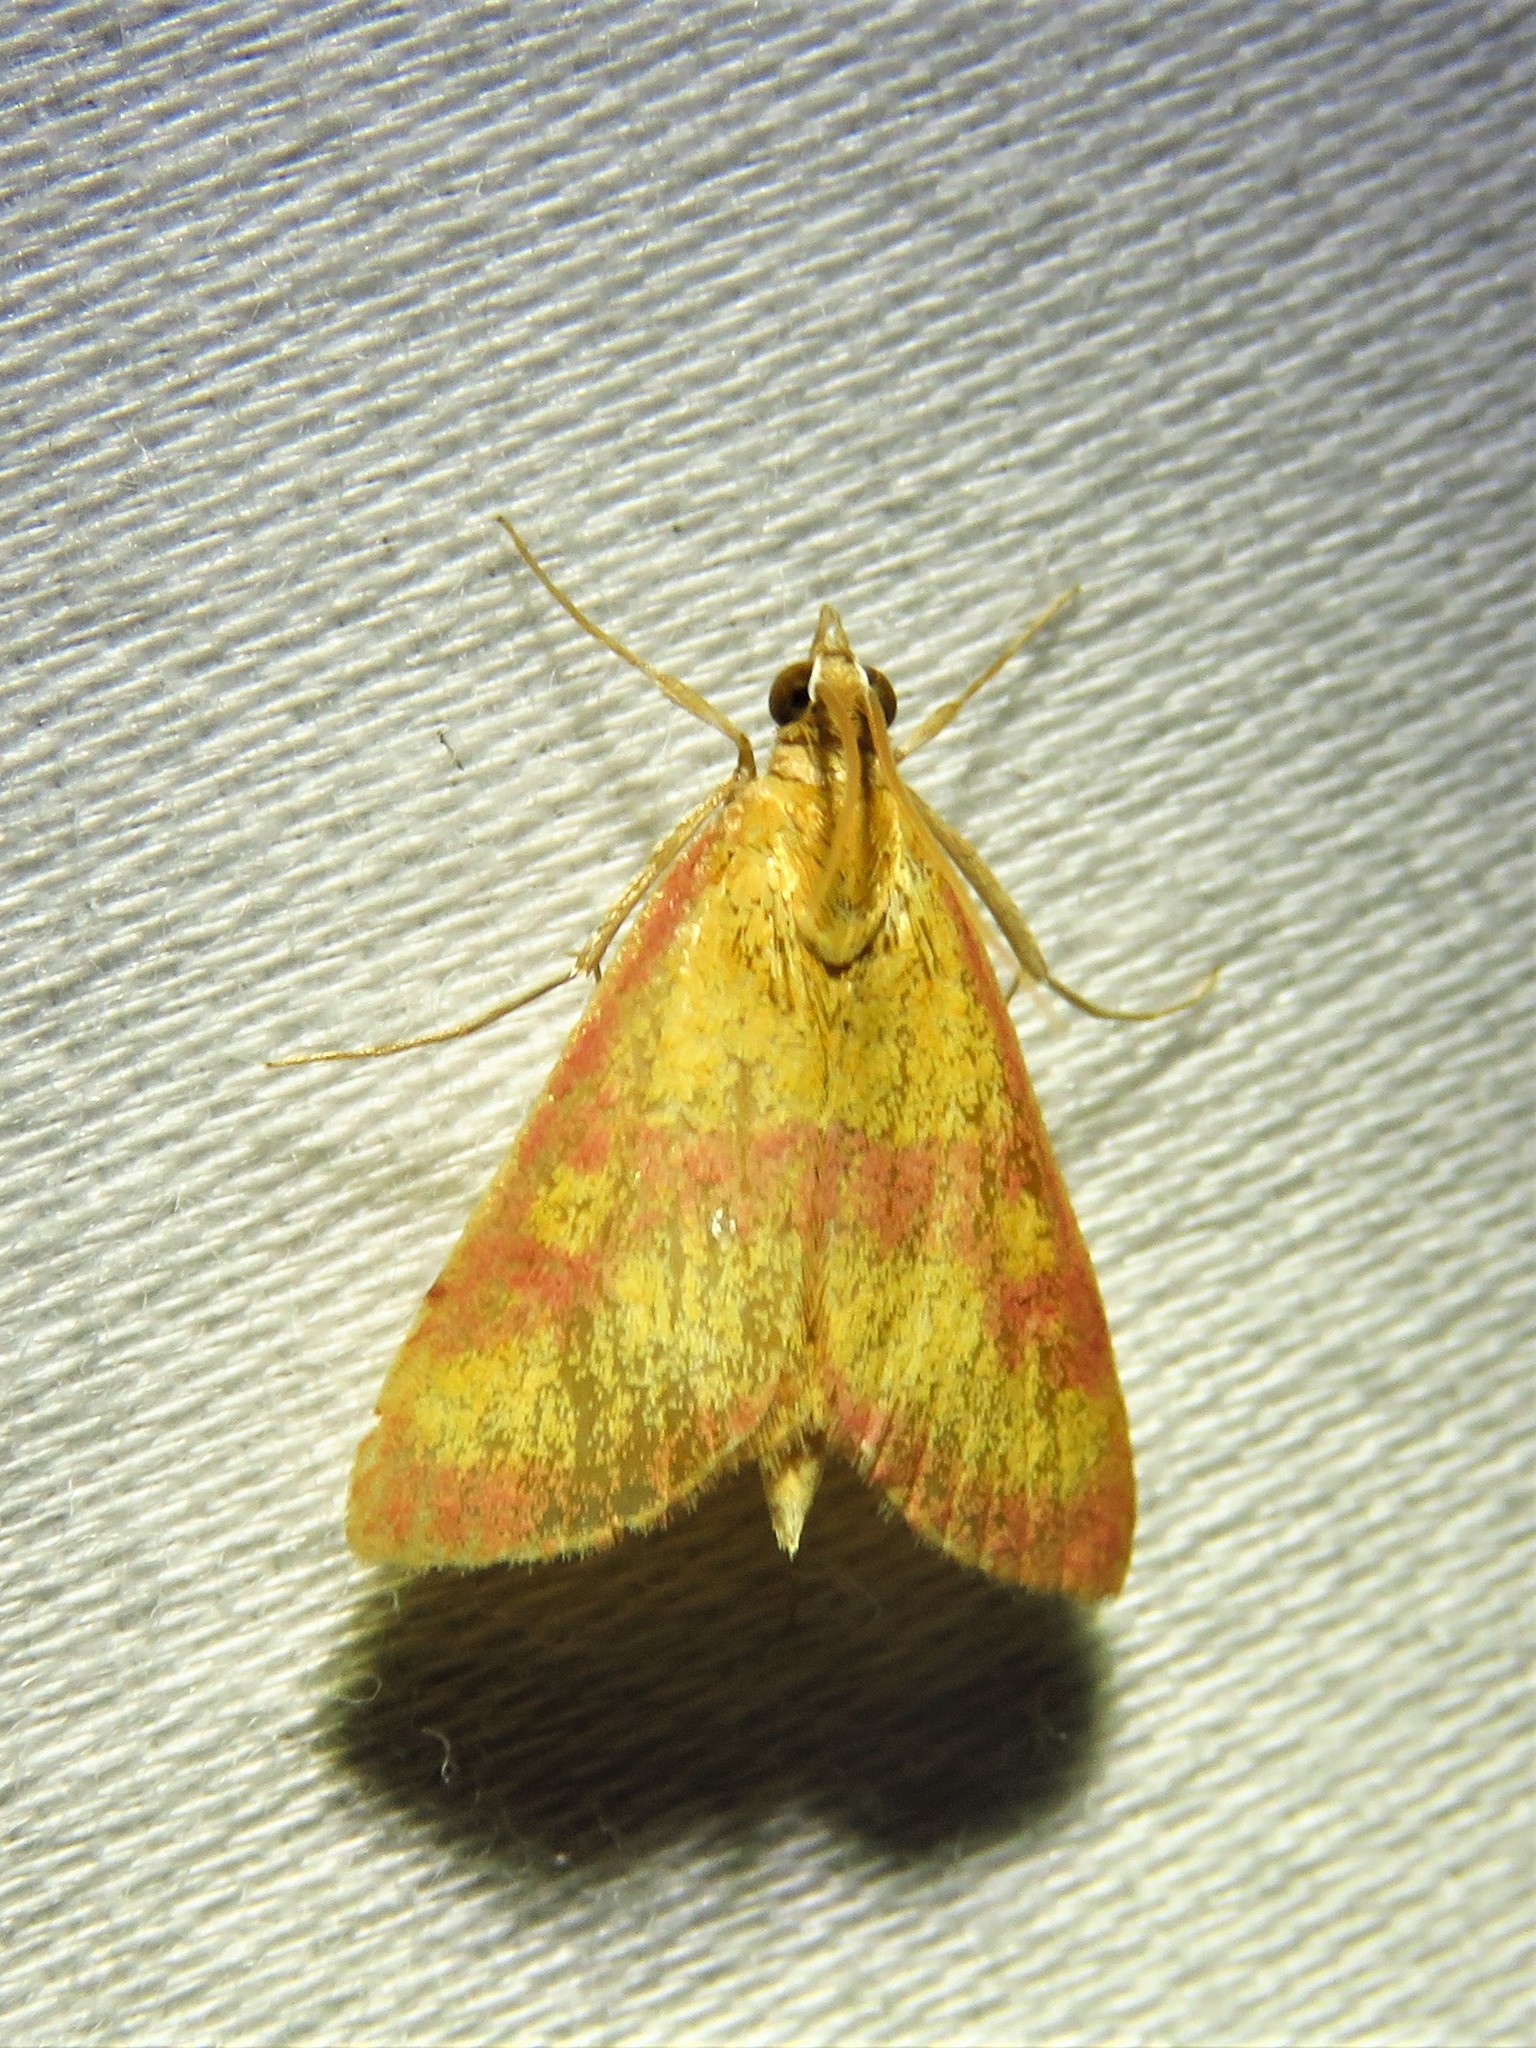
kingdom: Animalia
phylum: Arthropoda
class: Insecta
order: Lepidoptera
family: Crambidae
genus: Pyrausta
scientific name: Pyrausta laticlavia
